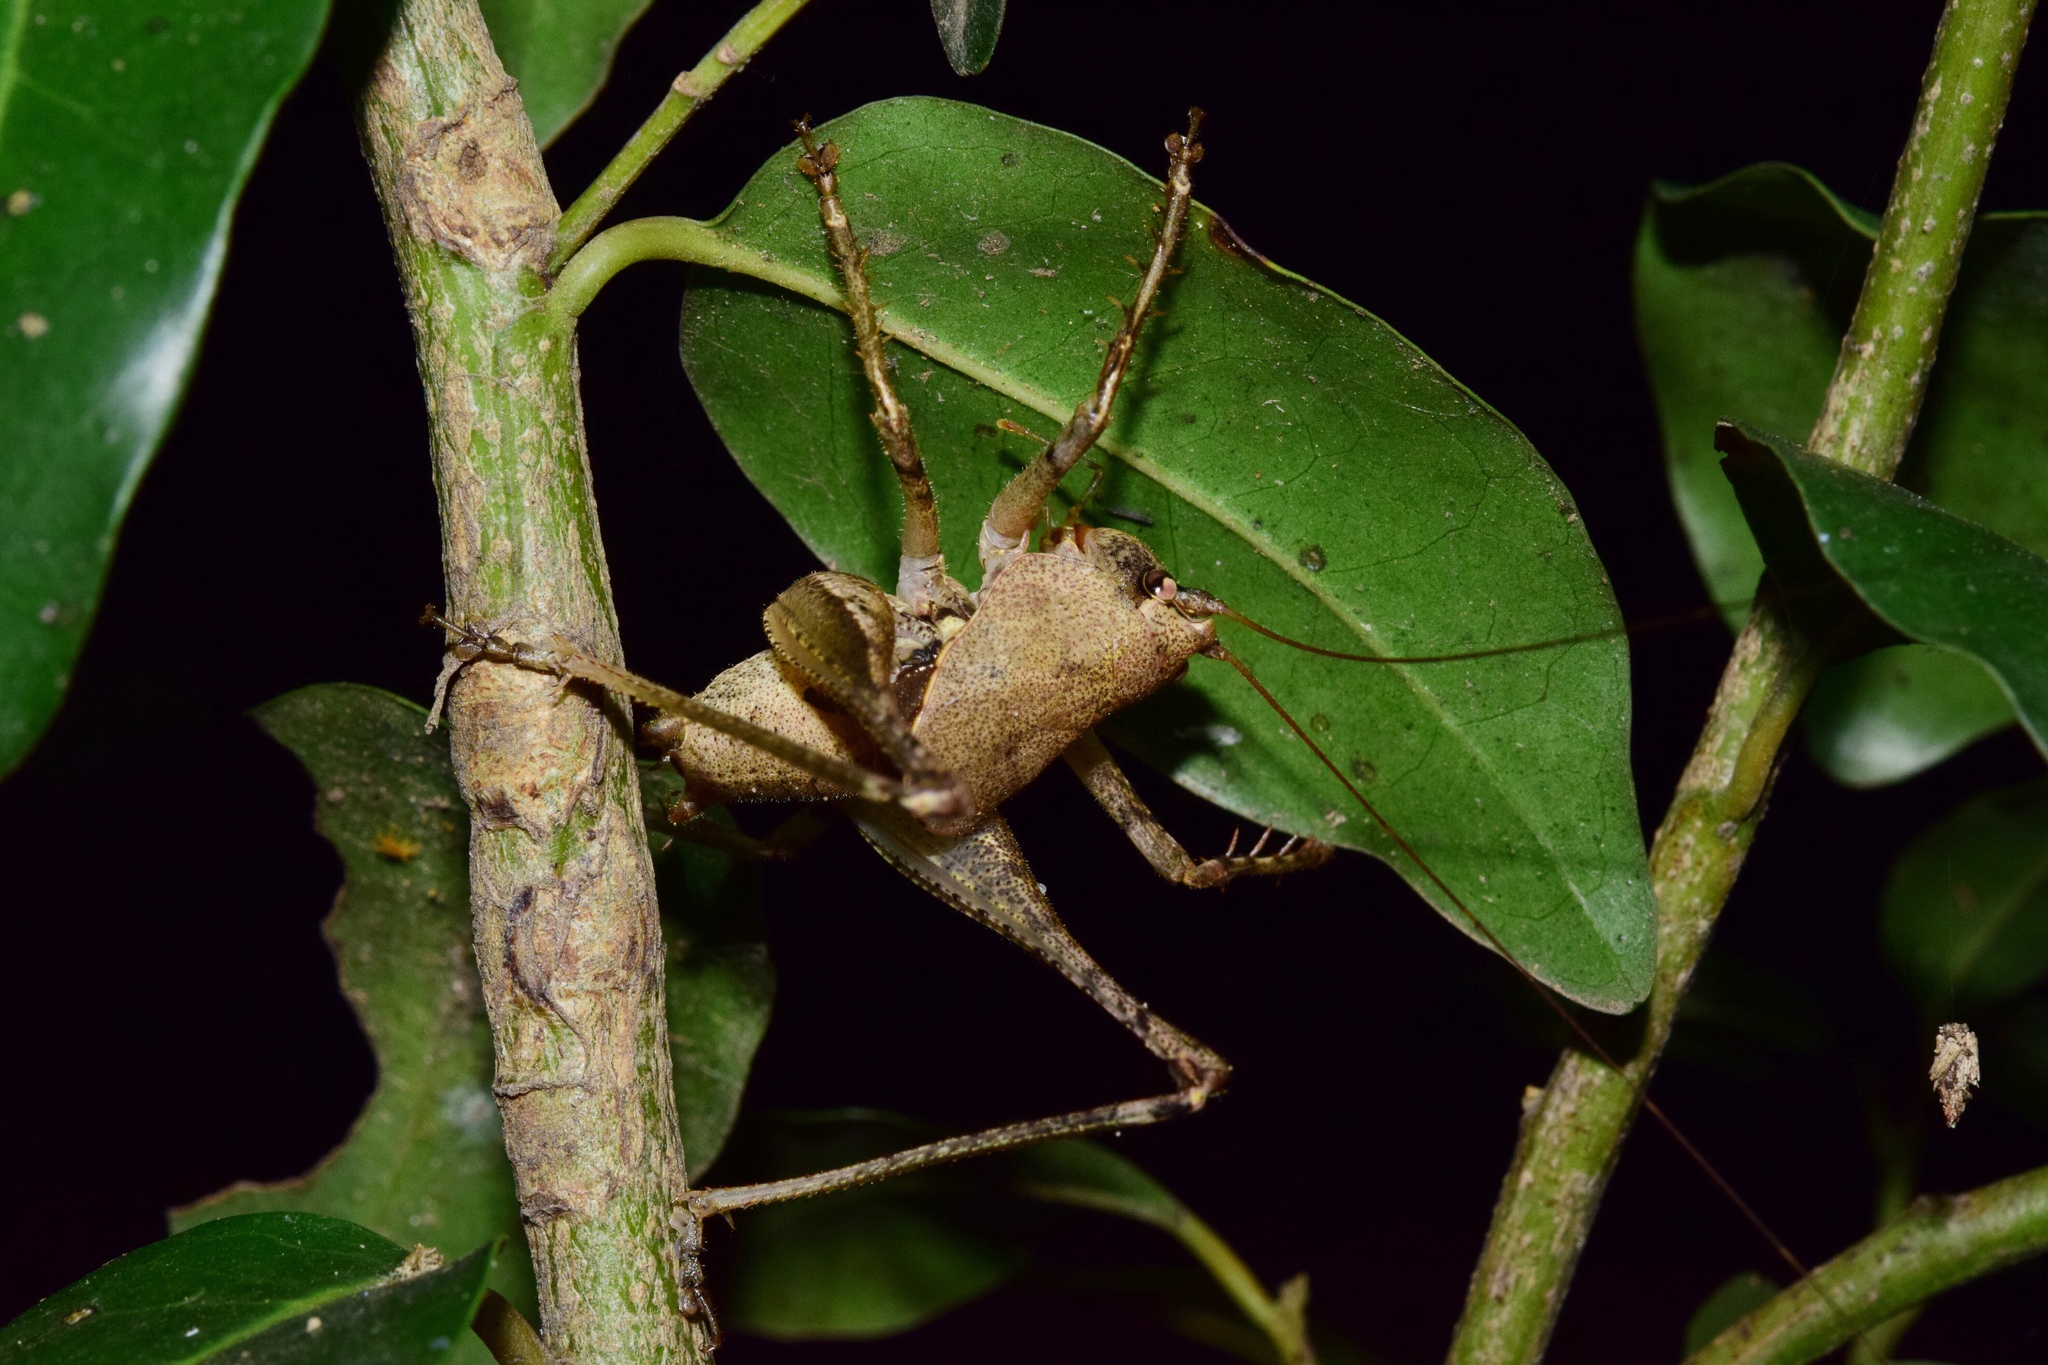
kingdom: Animalia
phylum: Arthropoda
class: Insecta
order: Orthoptera
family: Tettigoniidae
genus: Arytropteris
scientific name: Arytropteris granulithorax
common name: East coast flat-necked shieldback
